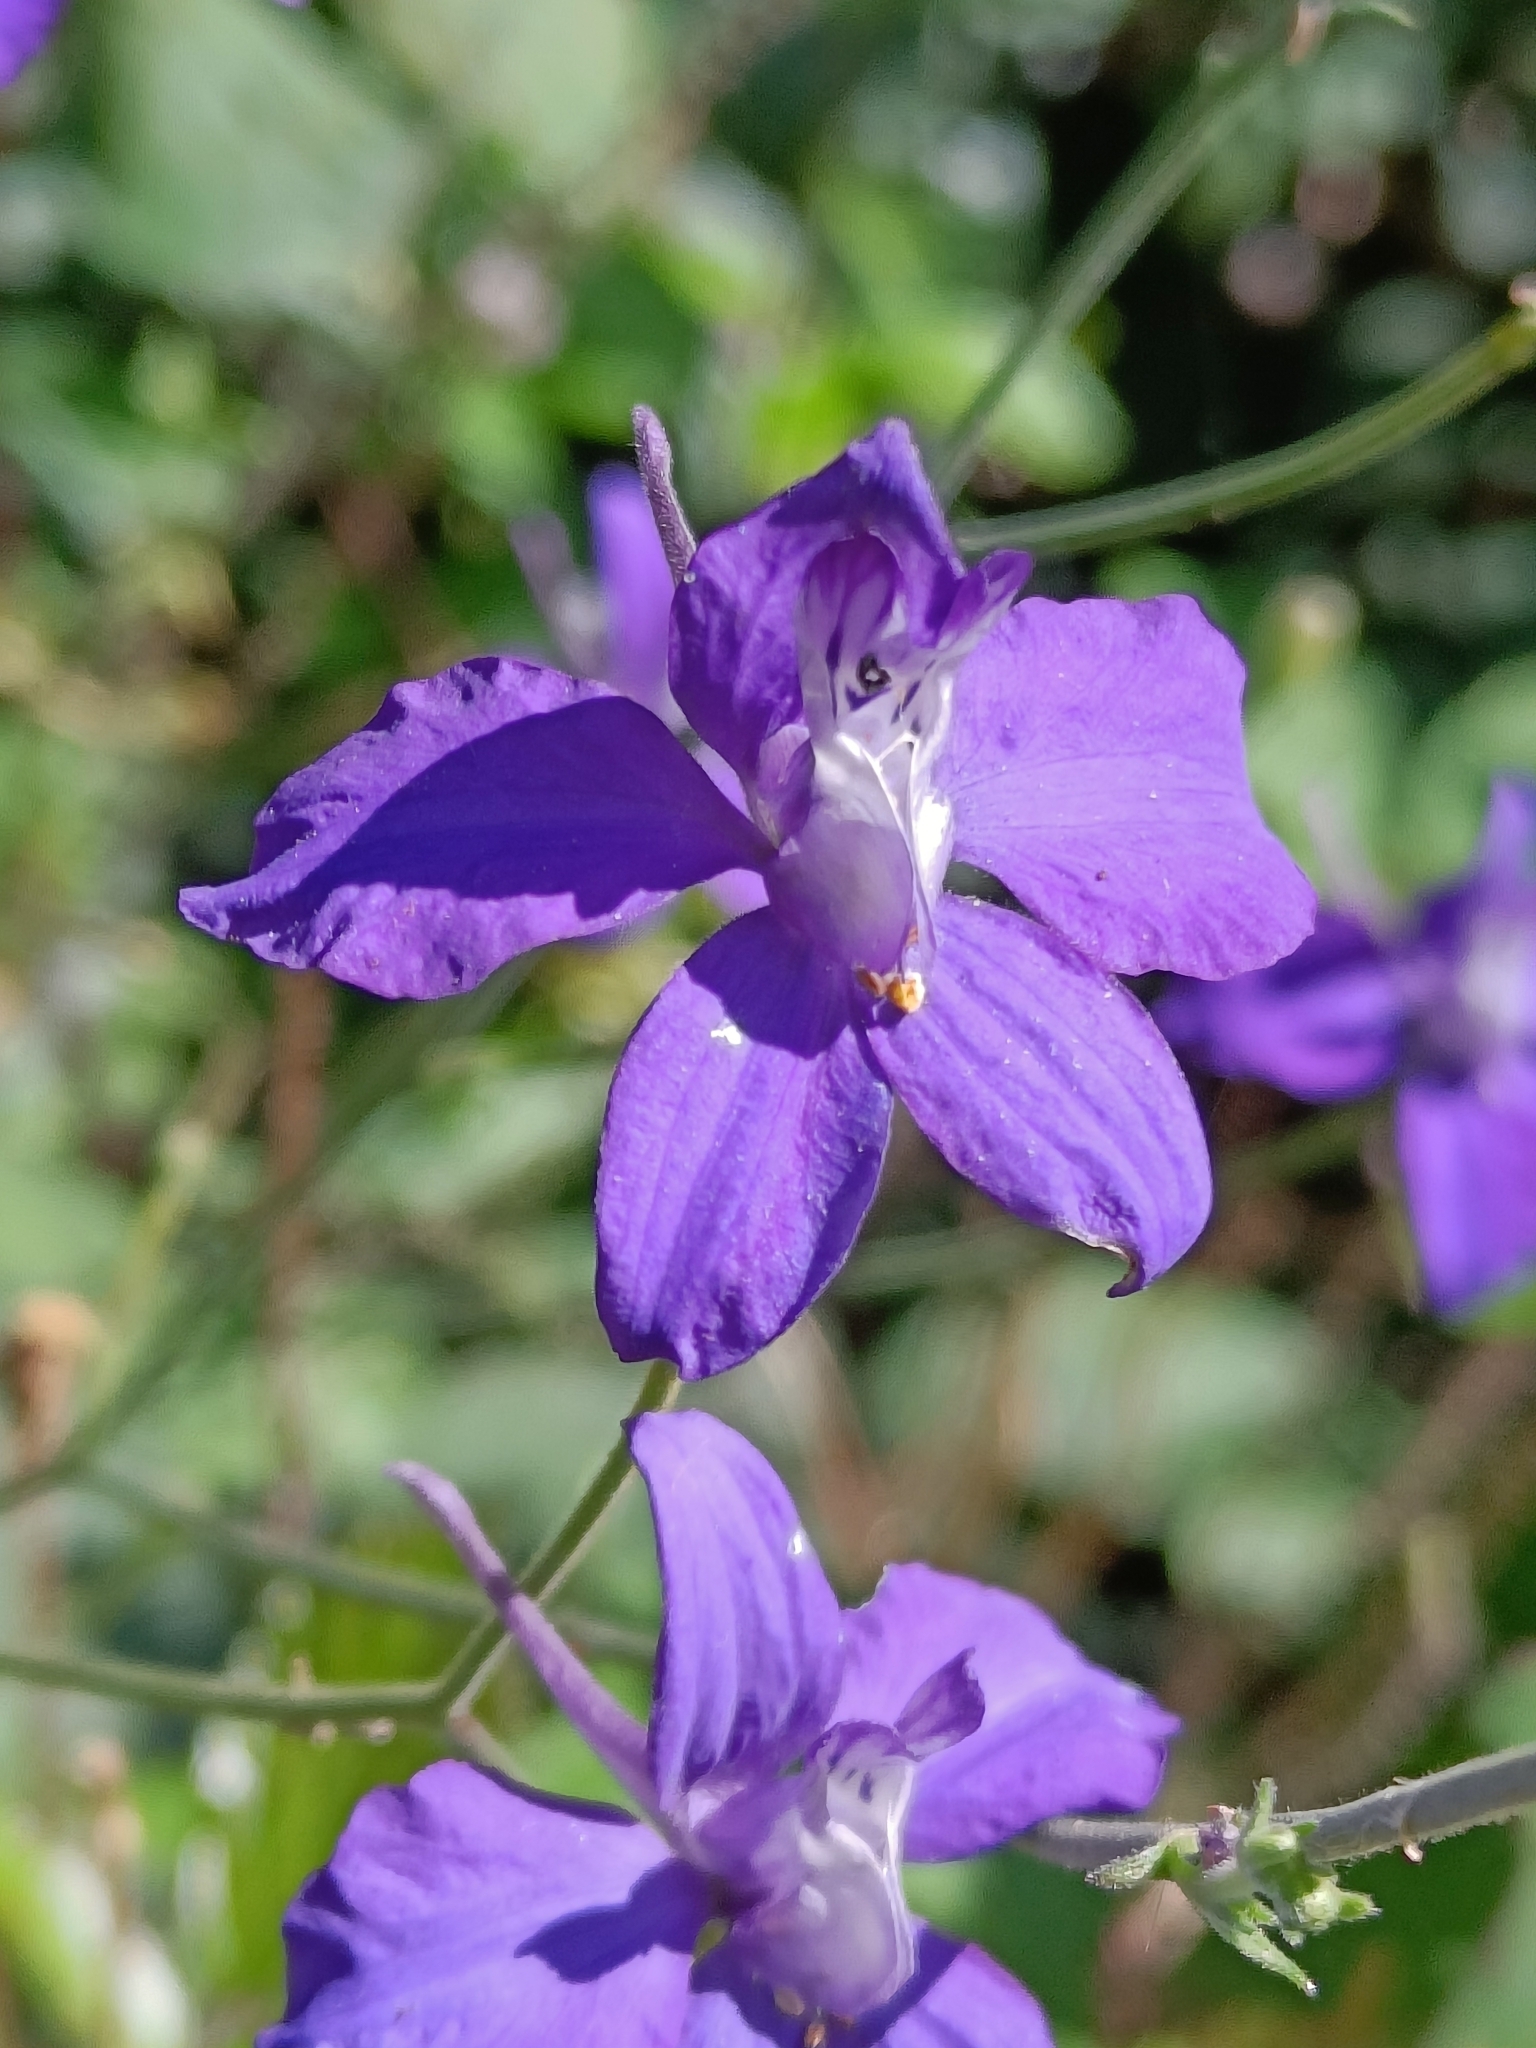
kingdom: Plantae
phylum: Tracheophyta
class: Magnoliopsida
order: Ranunculales
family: Ranunculaceae
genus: Delphinium
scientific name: Delphinium ajacis
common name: Doubtful knight's-spur
